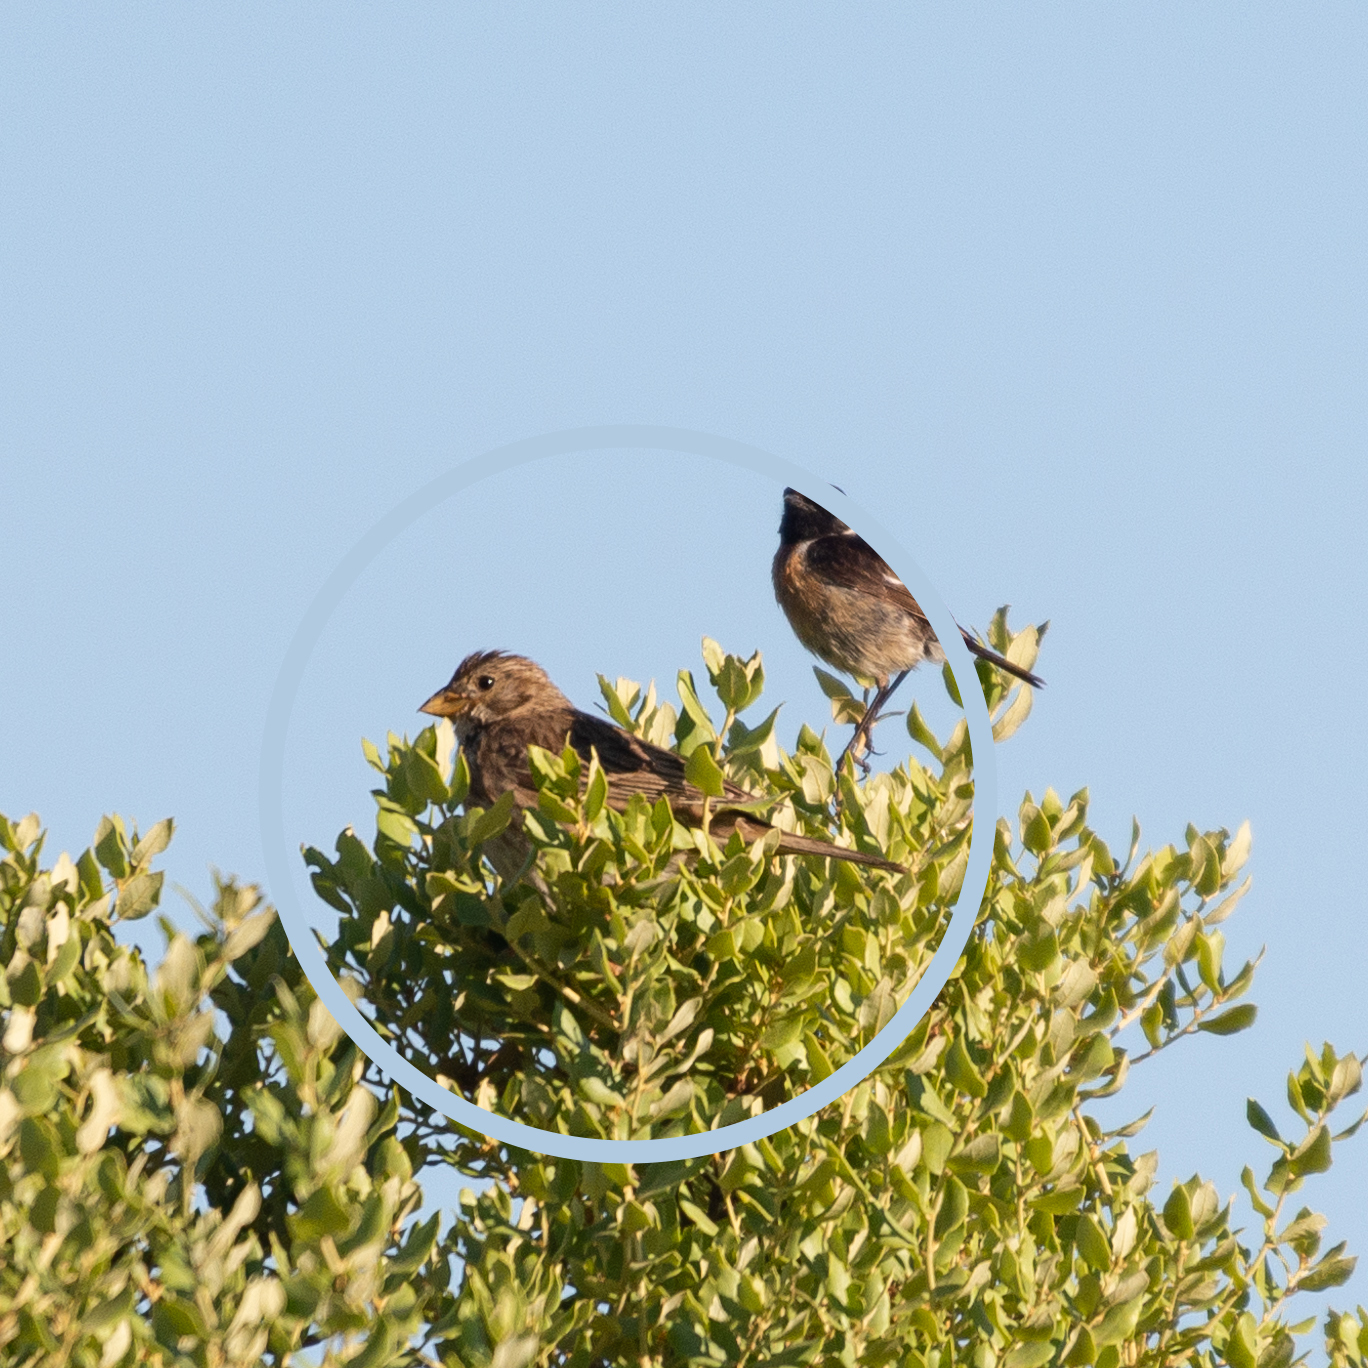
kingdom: Animalia
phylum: Chordata
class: Aves
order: Passeriformes
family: Emberizidae
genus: Emberiza
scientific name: Emberiza calandra
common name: Corn bunting
